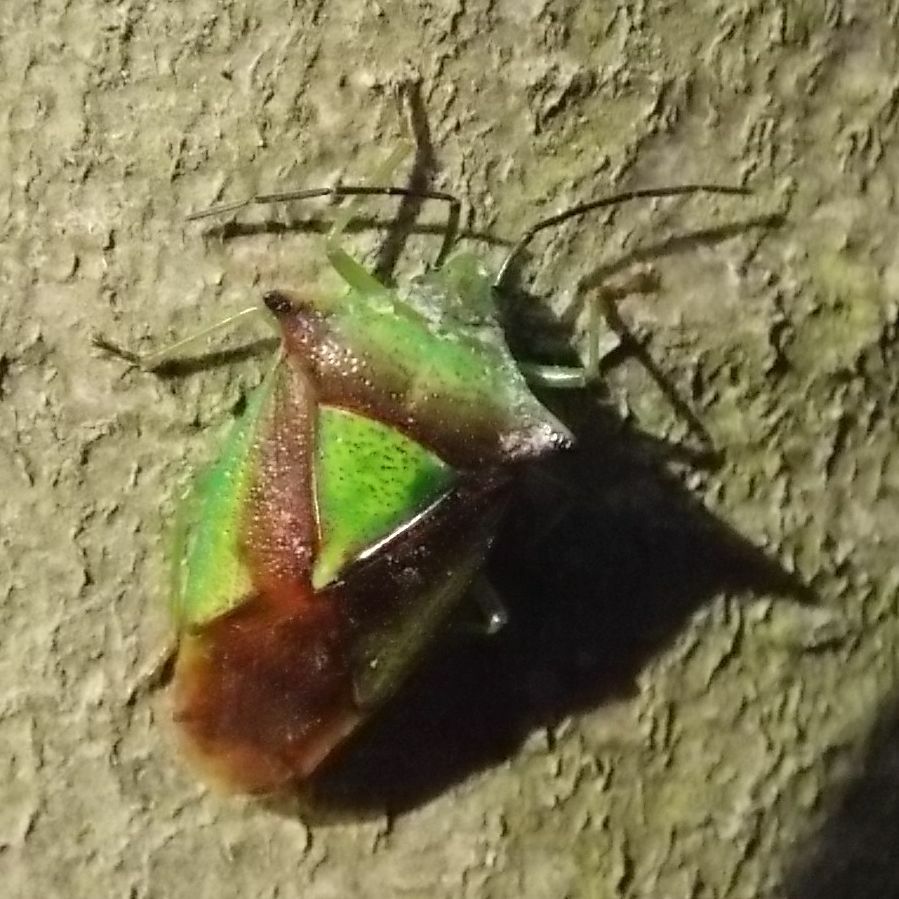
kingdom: Animalia
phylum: Arthropoda
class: Insecta
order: Hemiptera
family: Acanthosomatidae
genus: Acanthosoma
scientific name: Acanthosoma haemorrhoidale
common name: Hawthorn shieldbug
